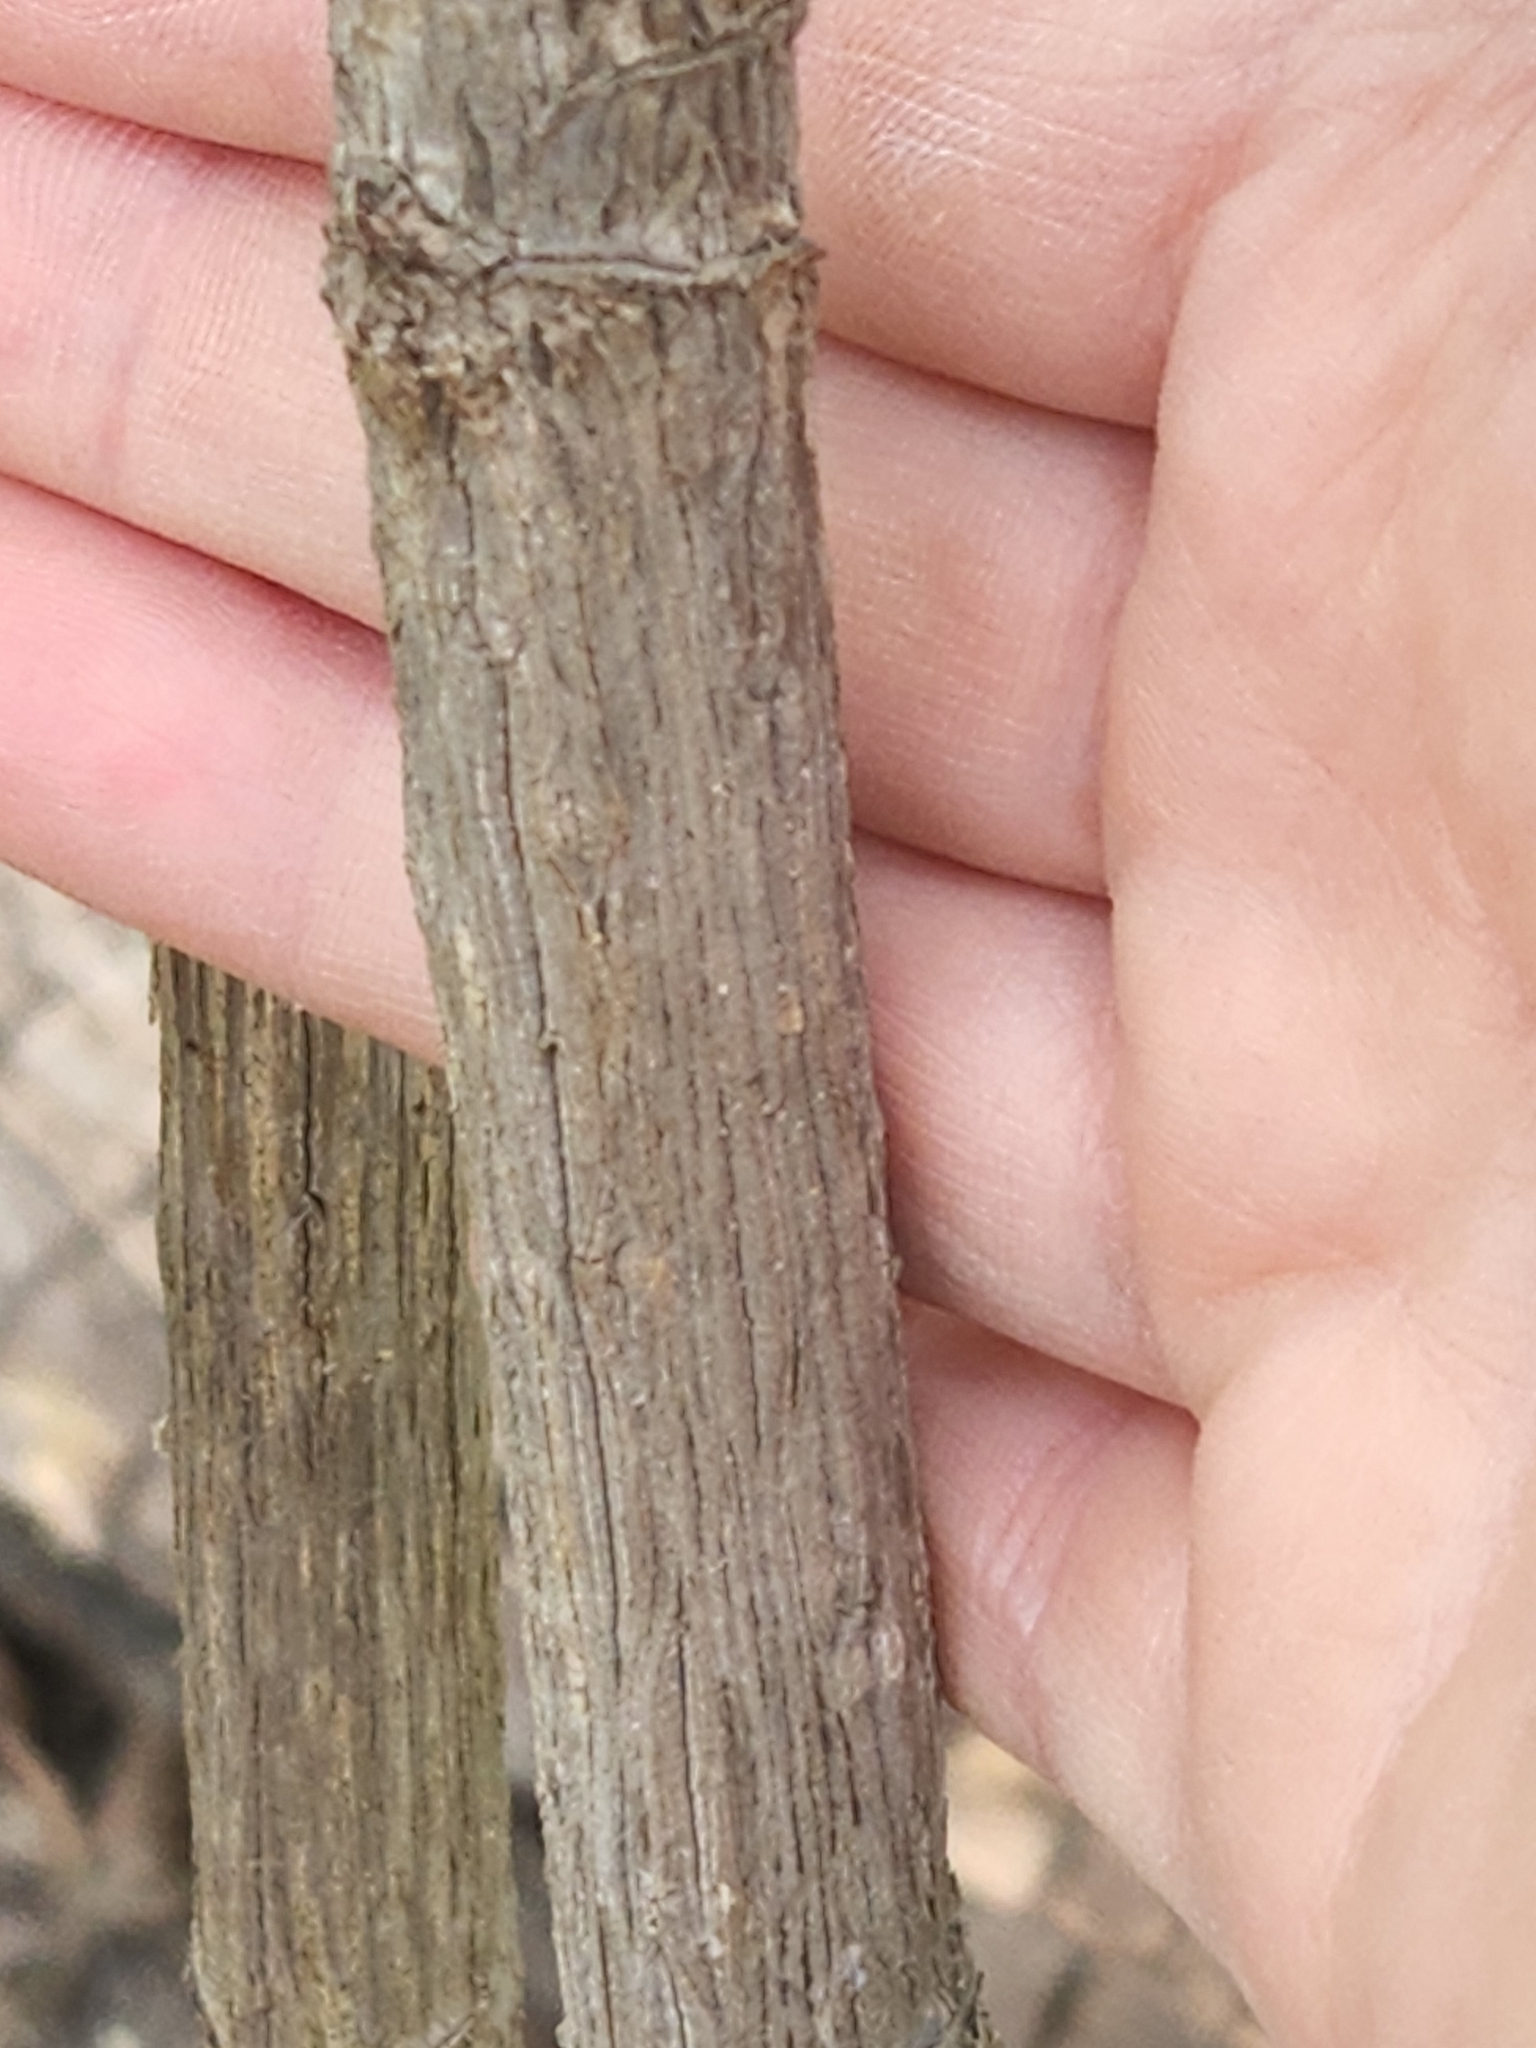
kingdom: Plantae
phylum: Tracheophyta
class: Magnoliopsida
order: Ranunculales
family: Berberidaceae
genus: Nandina
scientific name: Nandina domestica
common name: Sacred bamboo
